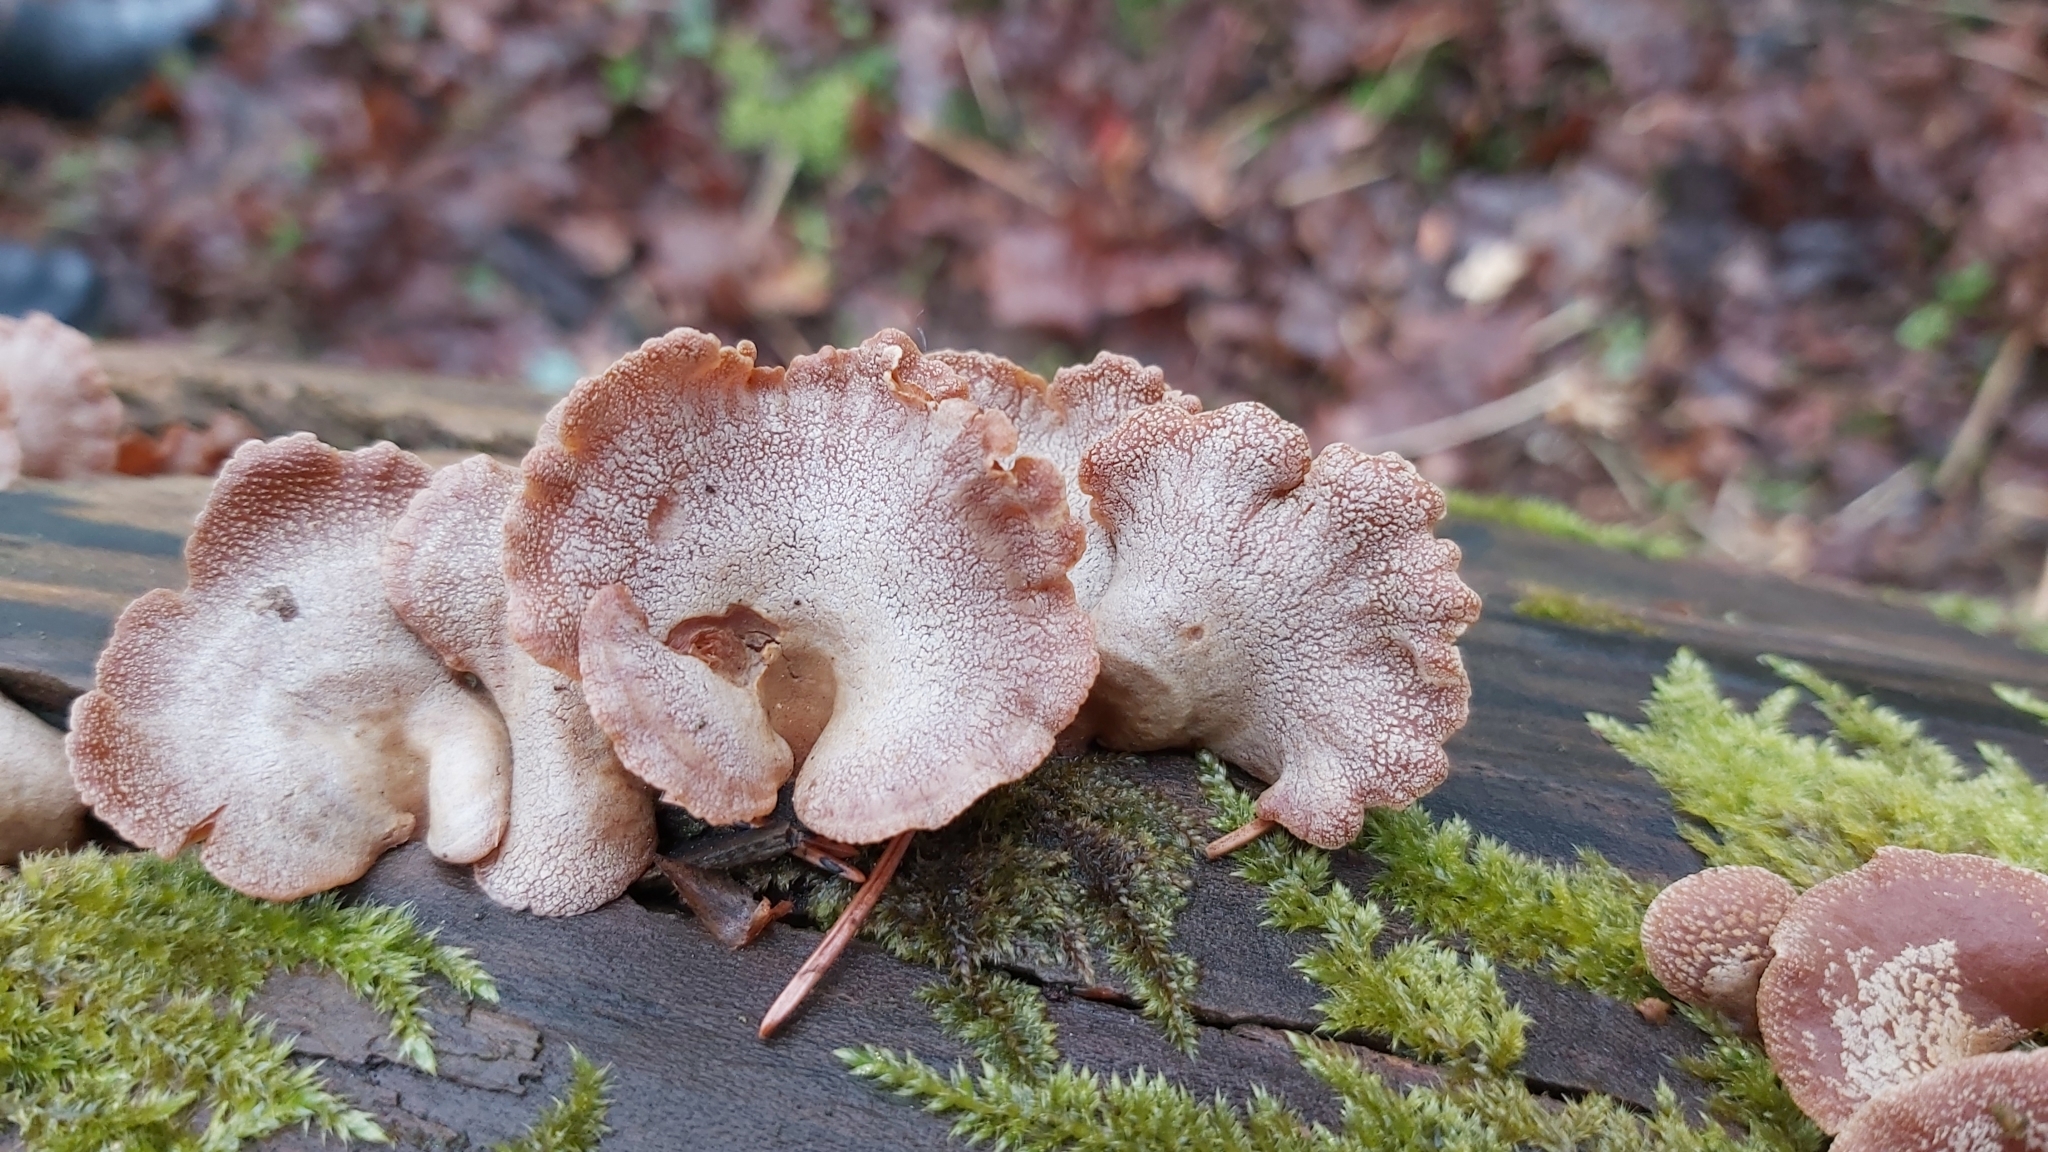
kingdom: Fungi
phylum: Basidiomycota
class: Agaricomycetes
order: Agaricales
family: Mycenaceae
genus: Panellus
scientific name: Panellus stipticus
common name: Bitter oysterling
